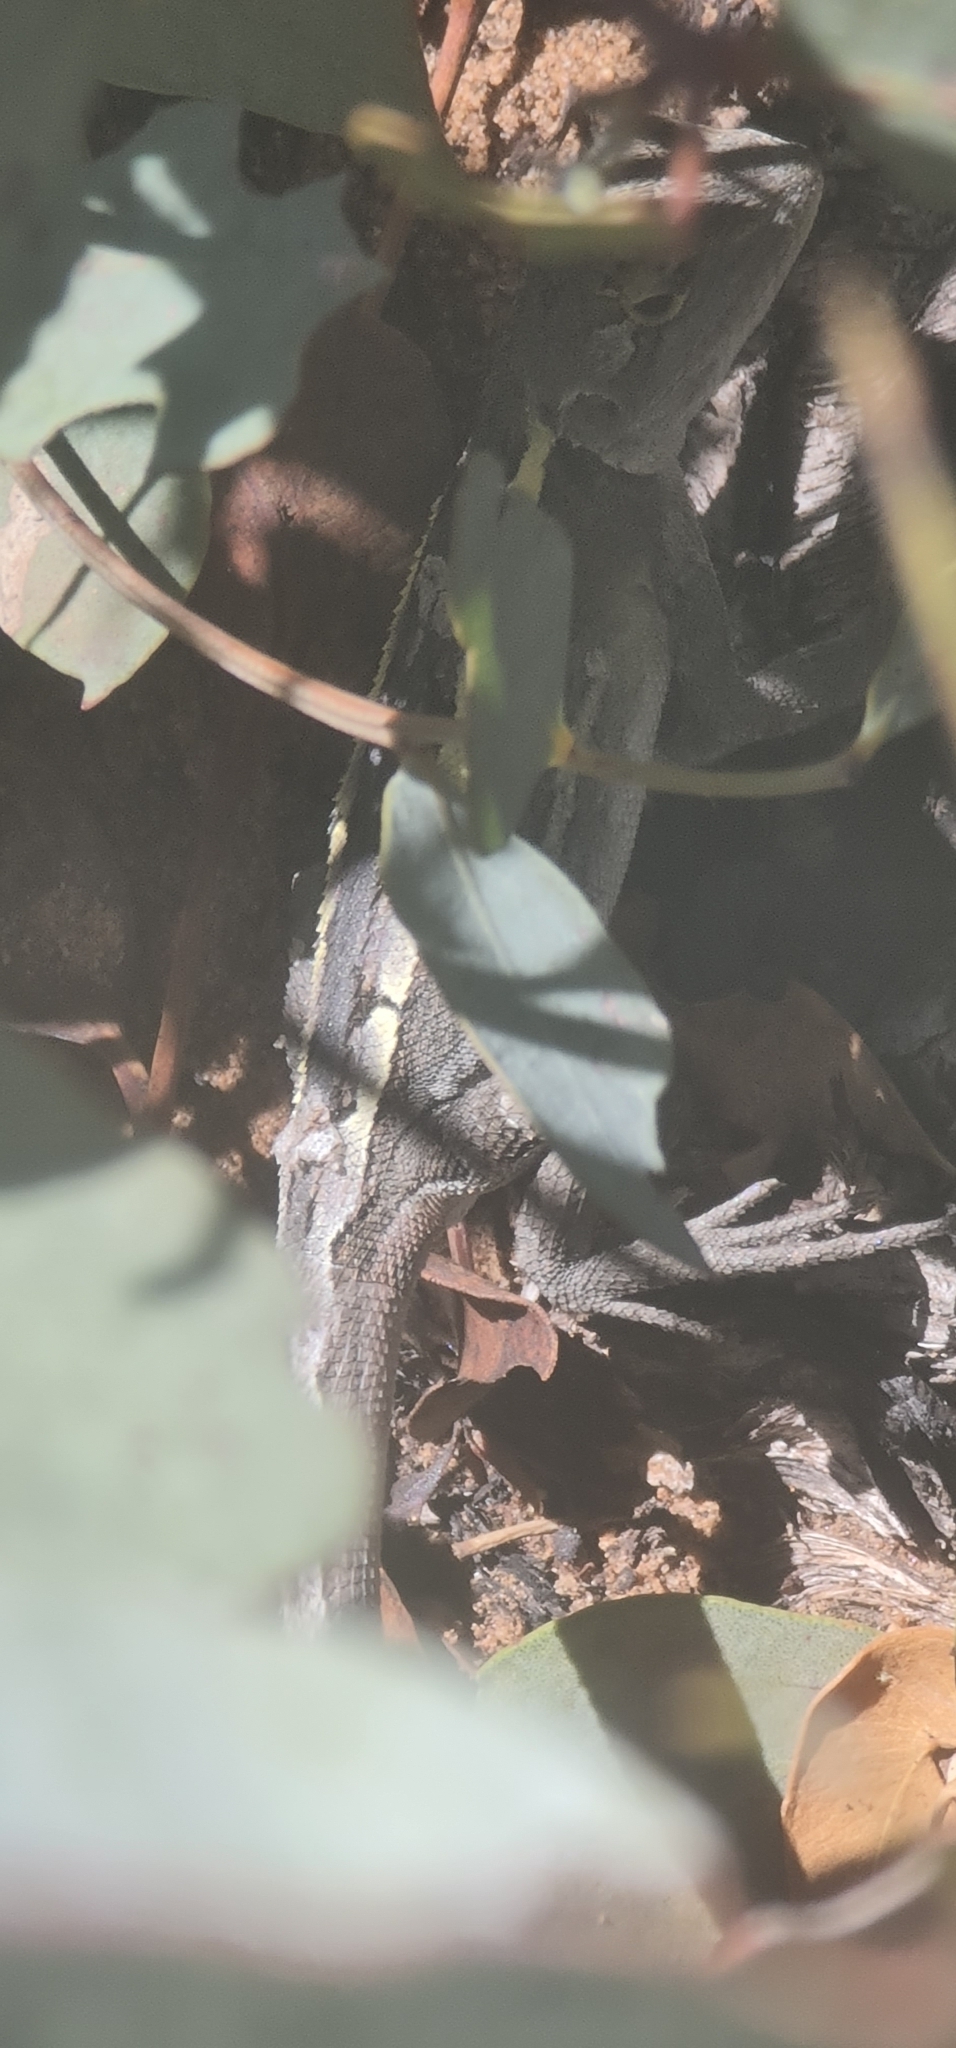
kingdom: Animalia
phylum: Chordata
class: Squamata
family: Agamidae
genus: Diporiphora
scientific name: Diporiphora nobbi
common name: Nobbi
